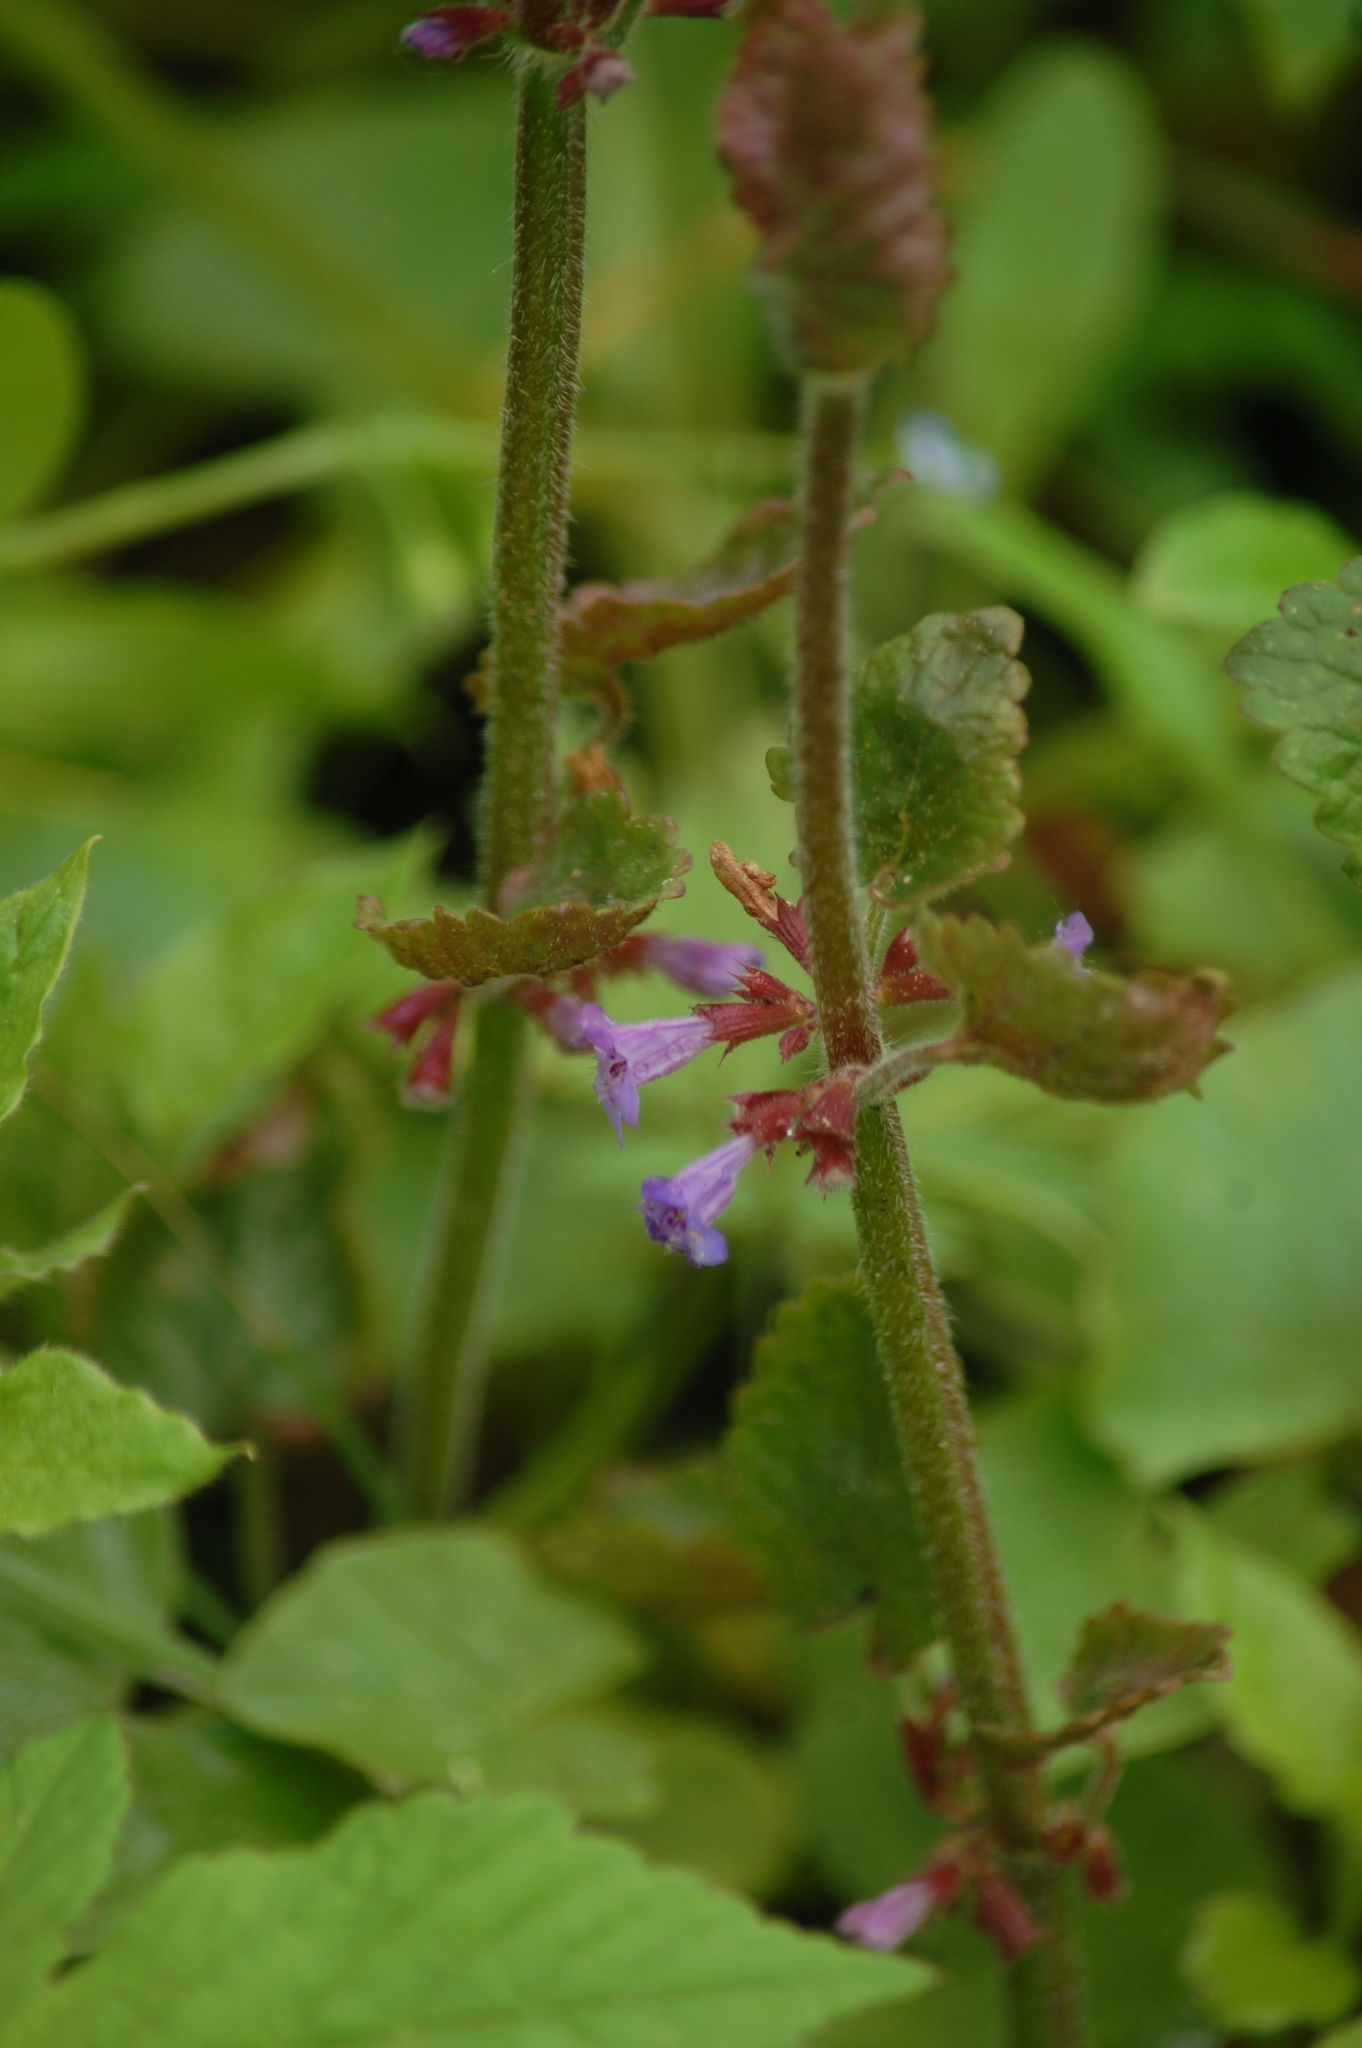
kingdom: Plantae
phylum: Tracheophyta
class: Magnoliopsida
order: Lamiales
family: Lamiaceae
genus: Glechoma
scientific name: Glechoma hederacea
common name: Ground ivy
